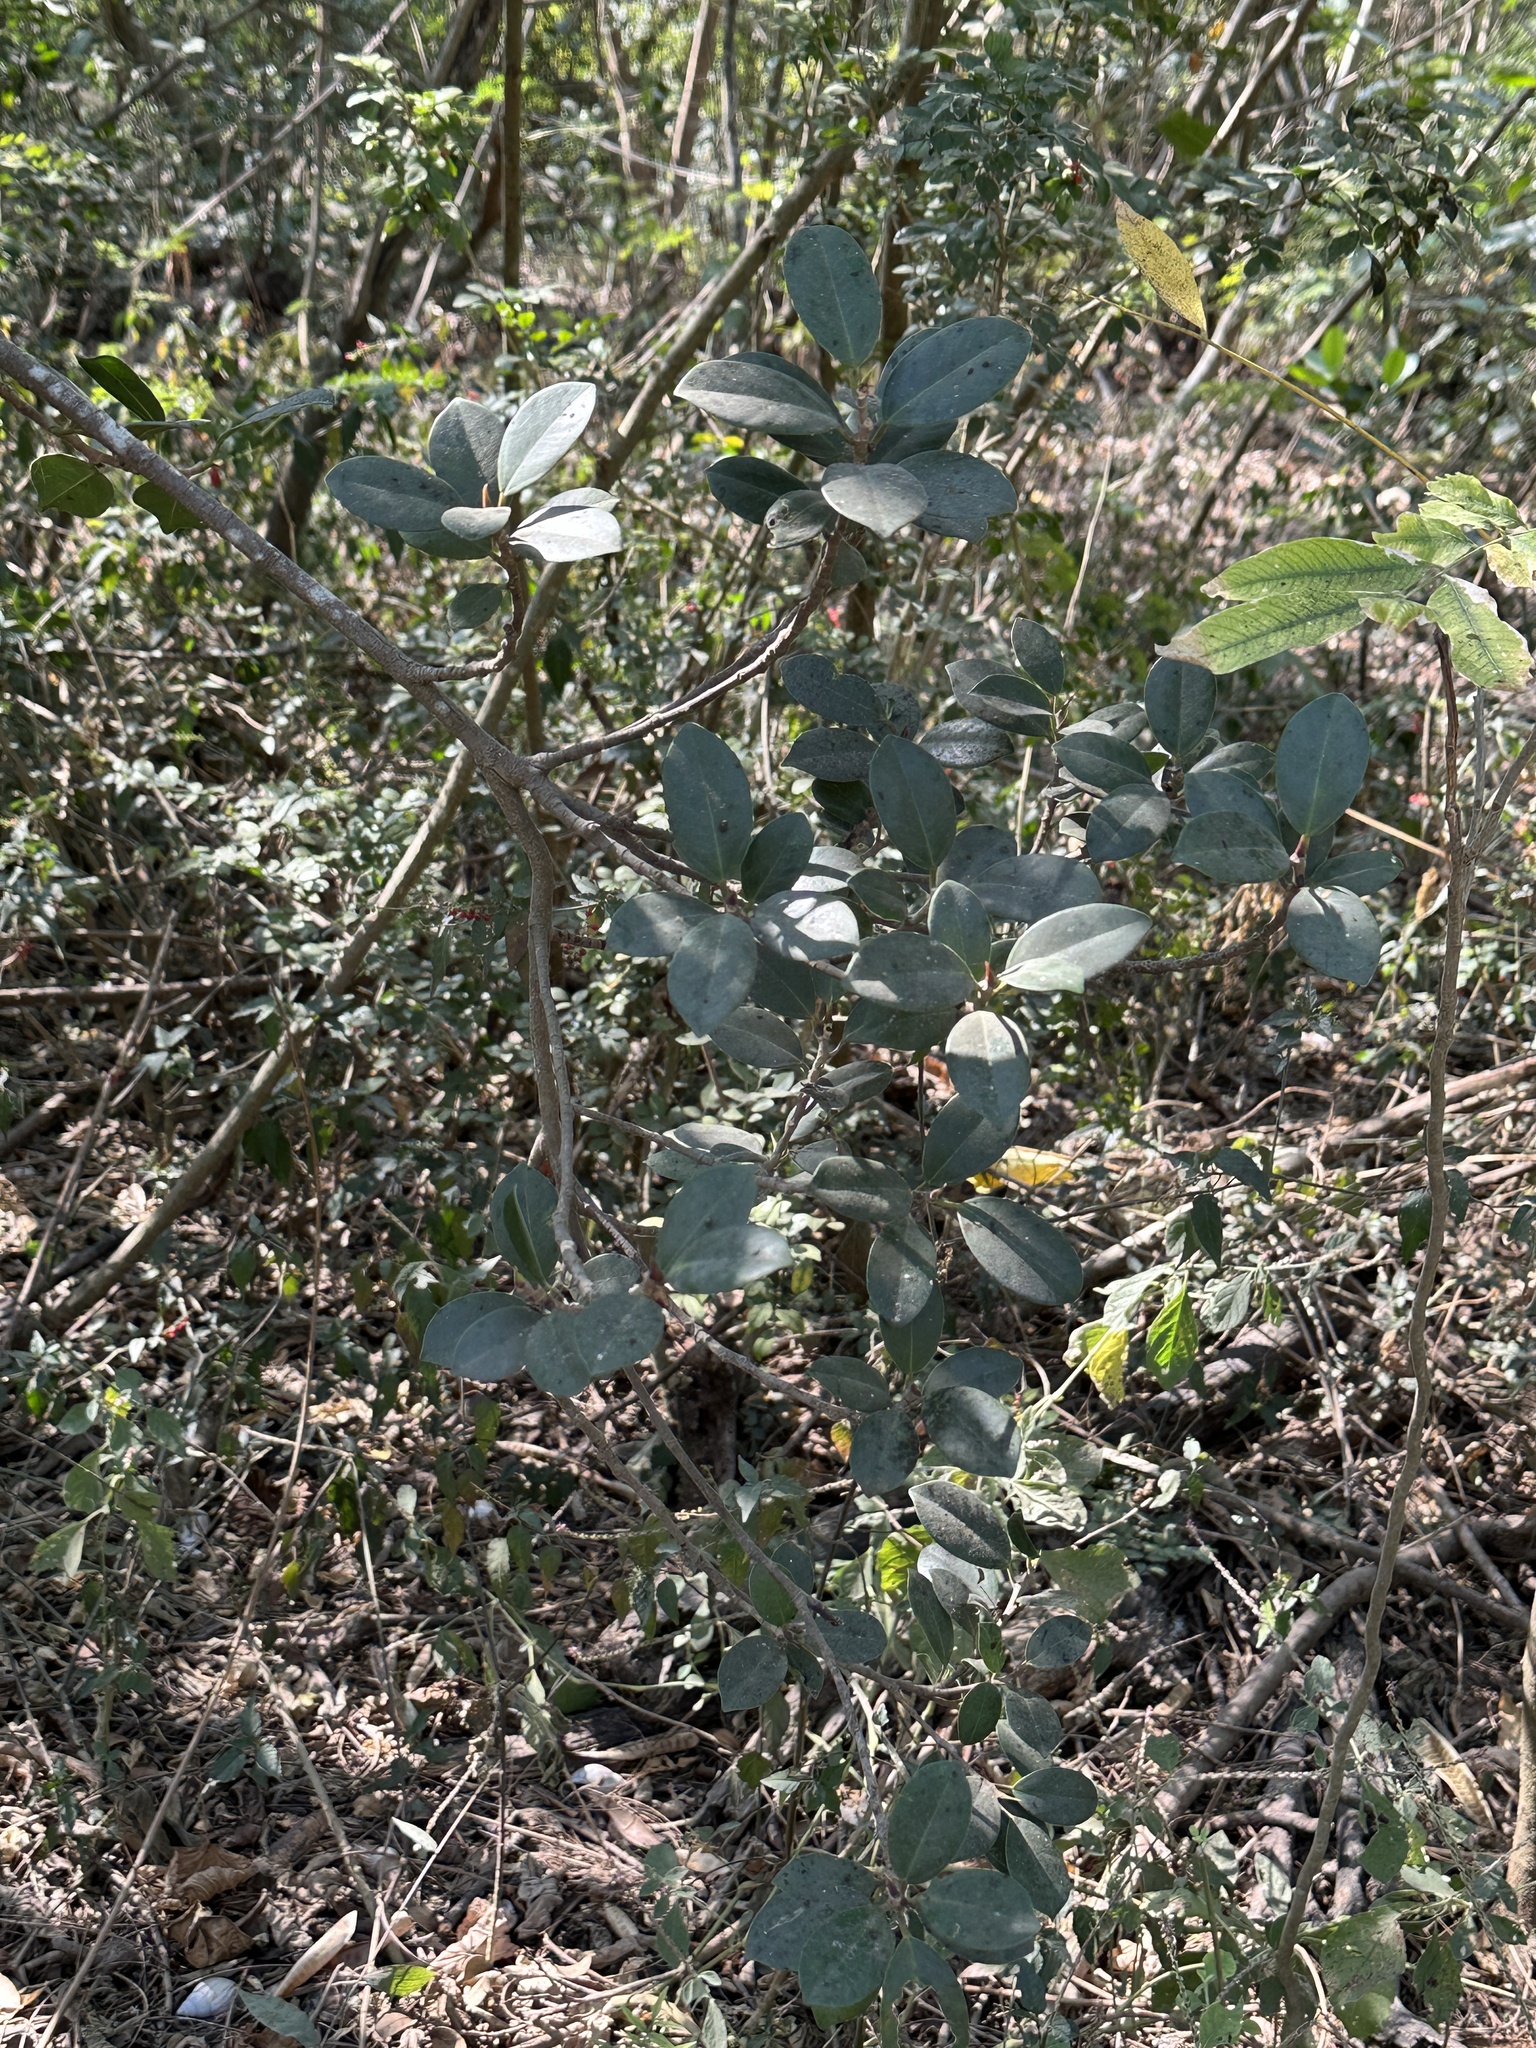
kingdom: Plantae
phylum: Tracheophyta
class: Magnoliopsida
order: Rosales
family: Moraceae
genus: Ficus
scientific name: Ficus microcarpa
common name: Chinese banyan
